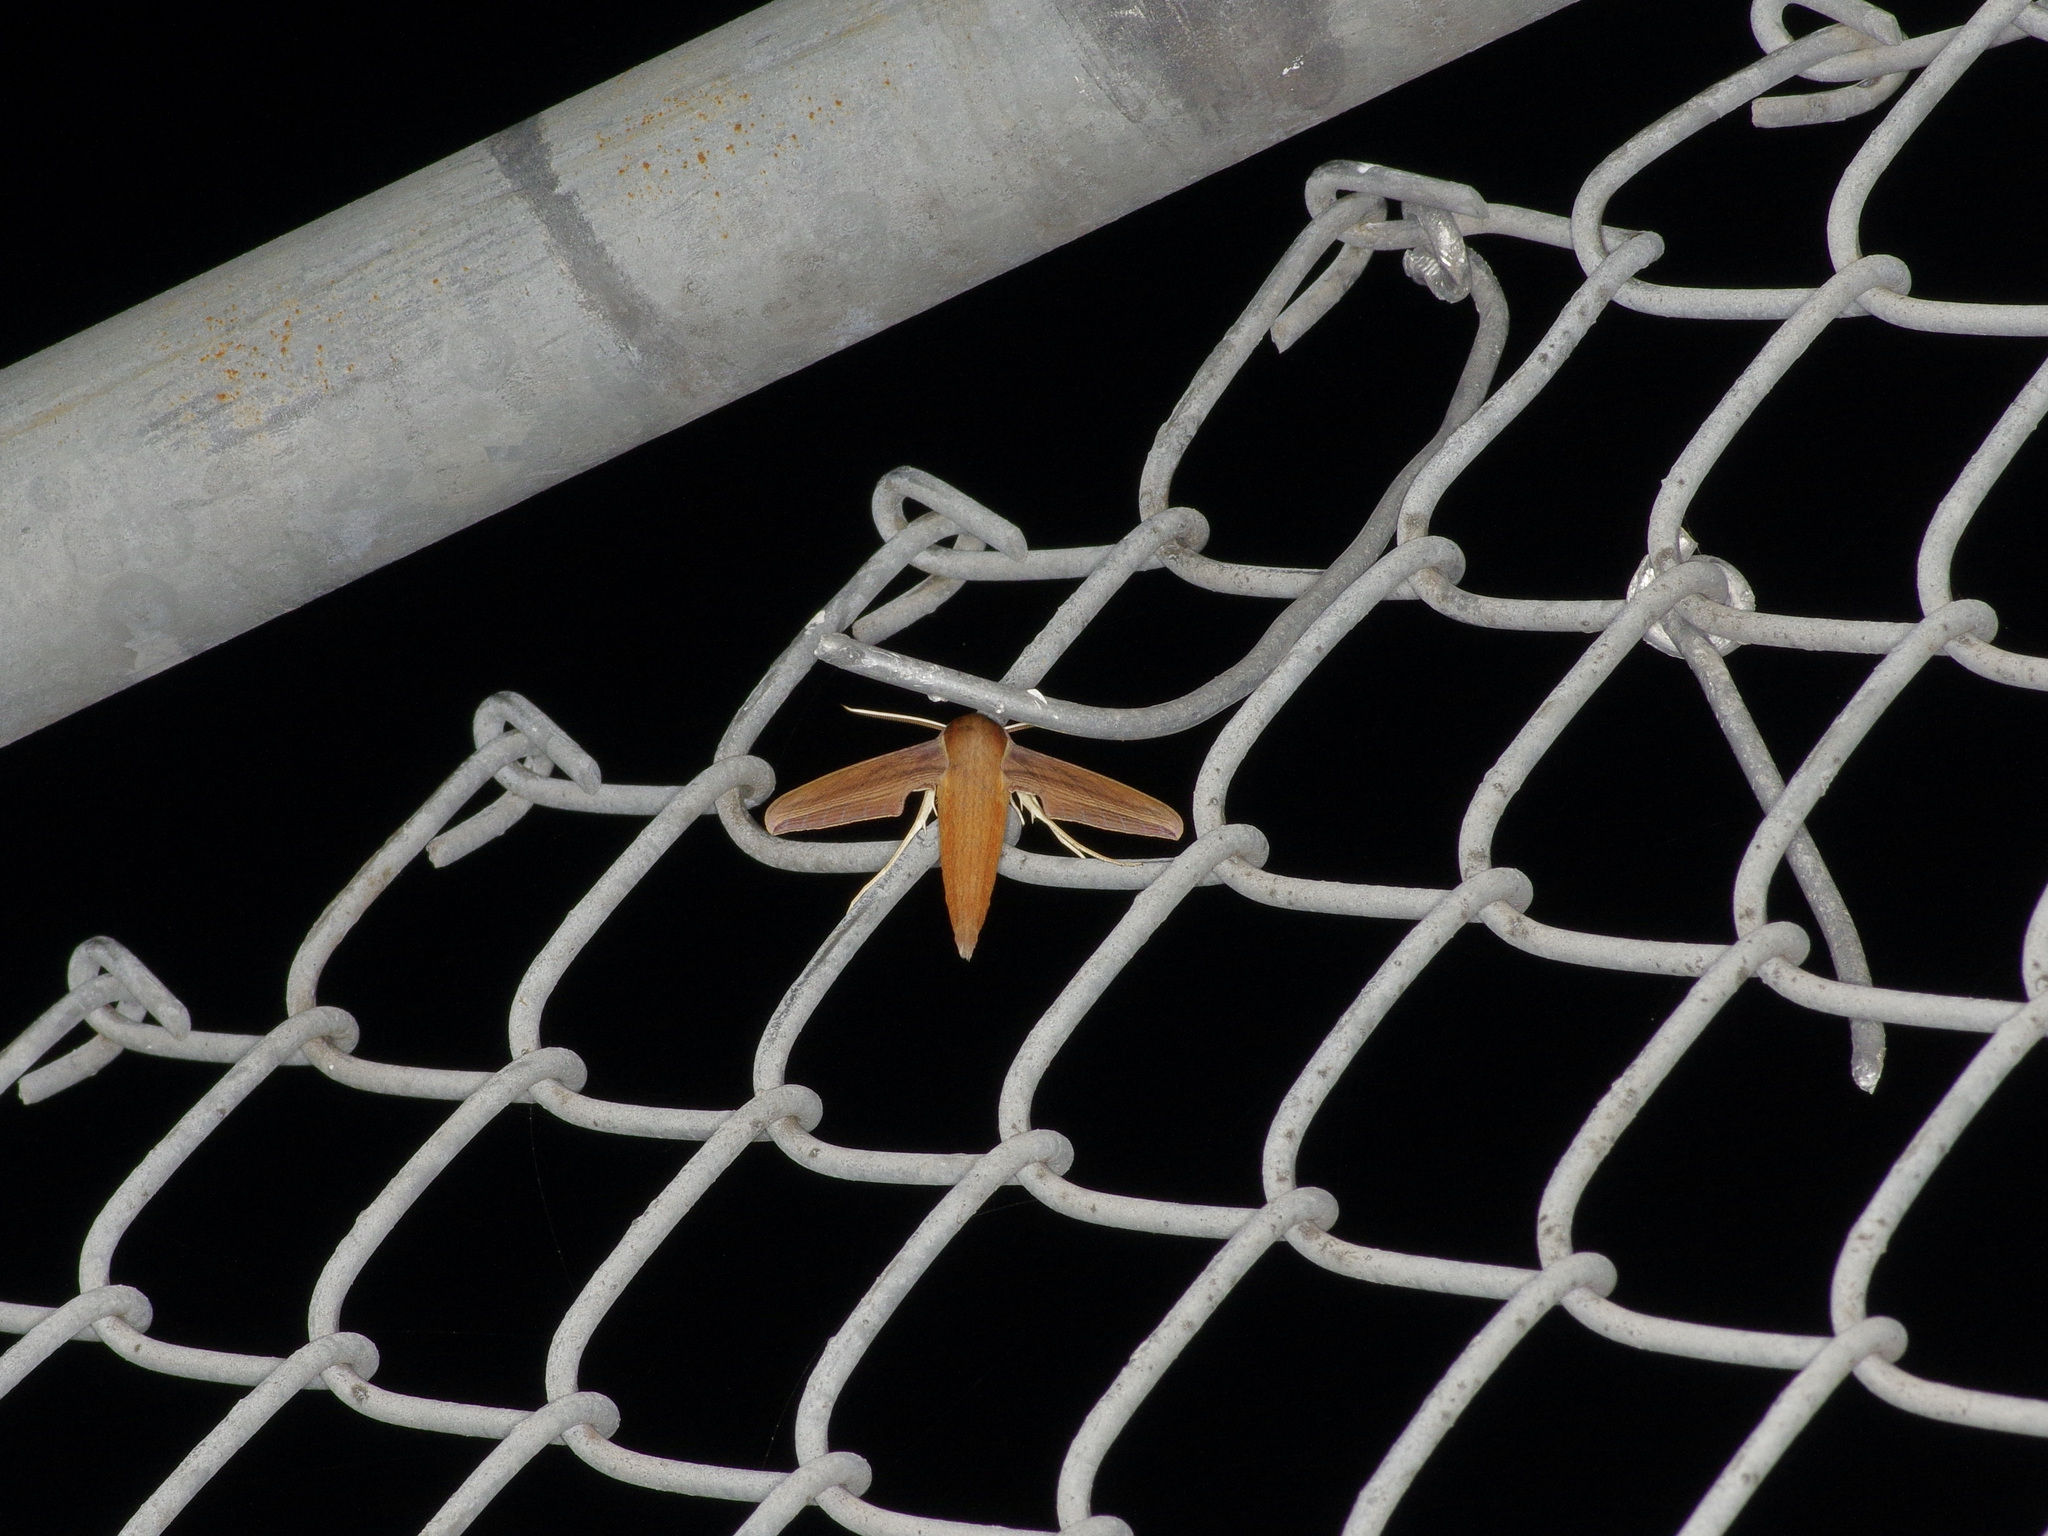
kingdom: Animalia
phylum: Arthropoda
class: Insecta
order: Lepidoptera
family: Sphingidae
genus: Xylophanes
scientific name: Xylophanes tersa
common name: Tersa sphinx
